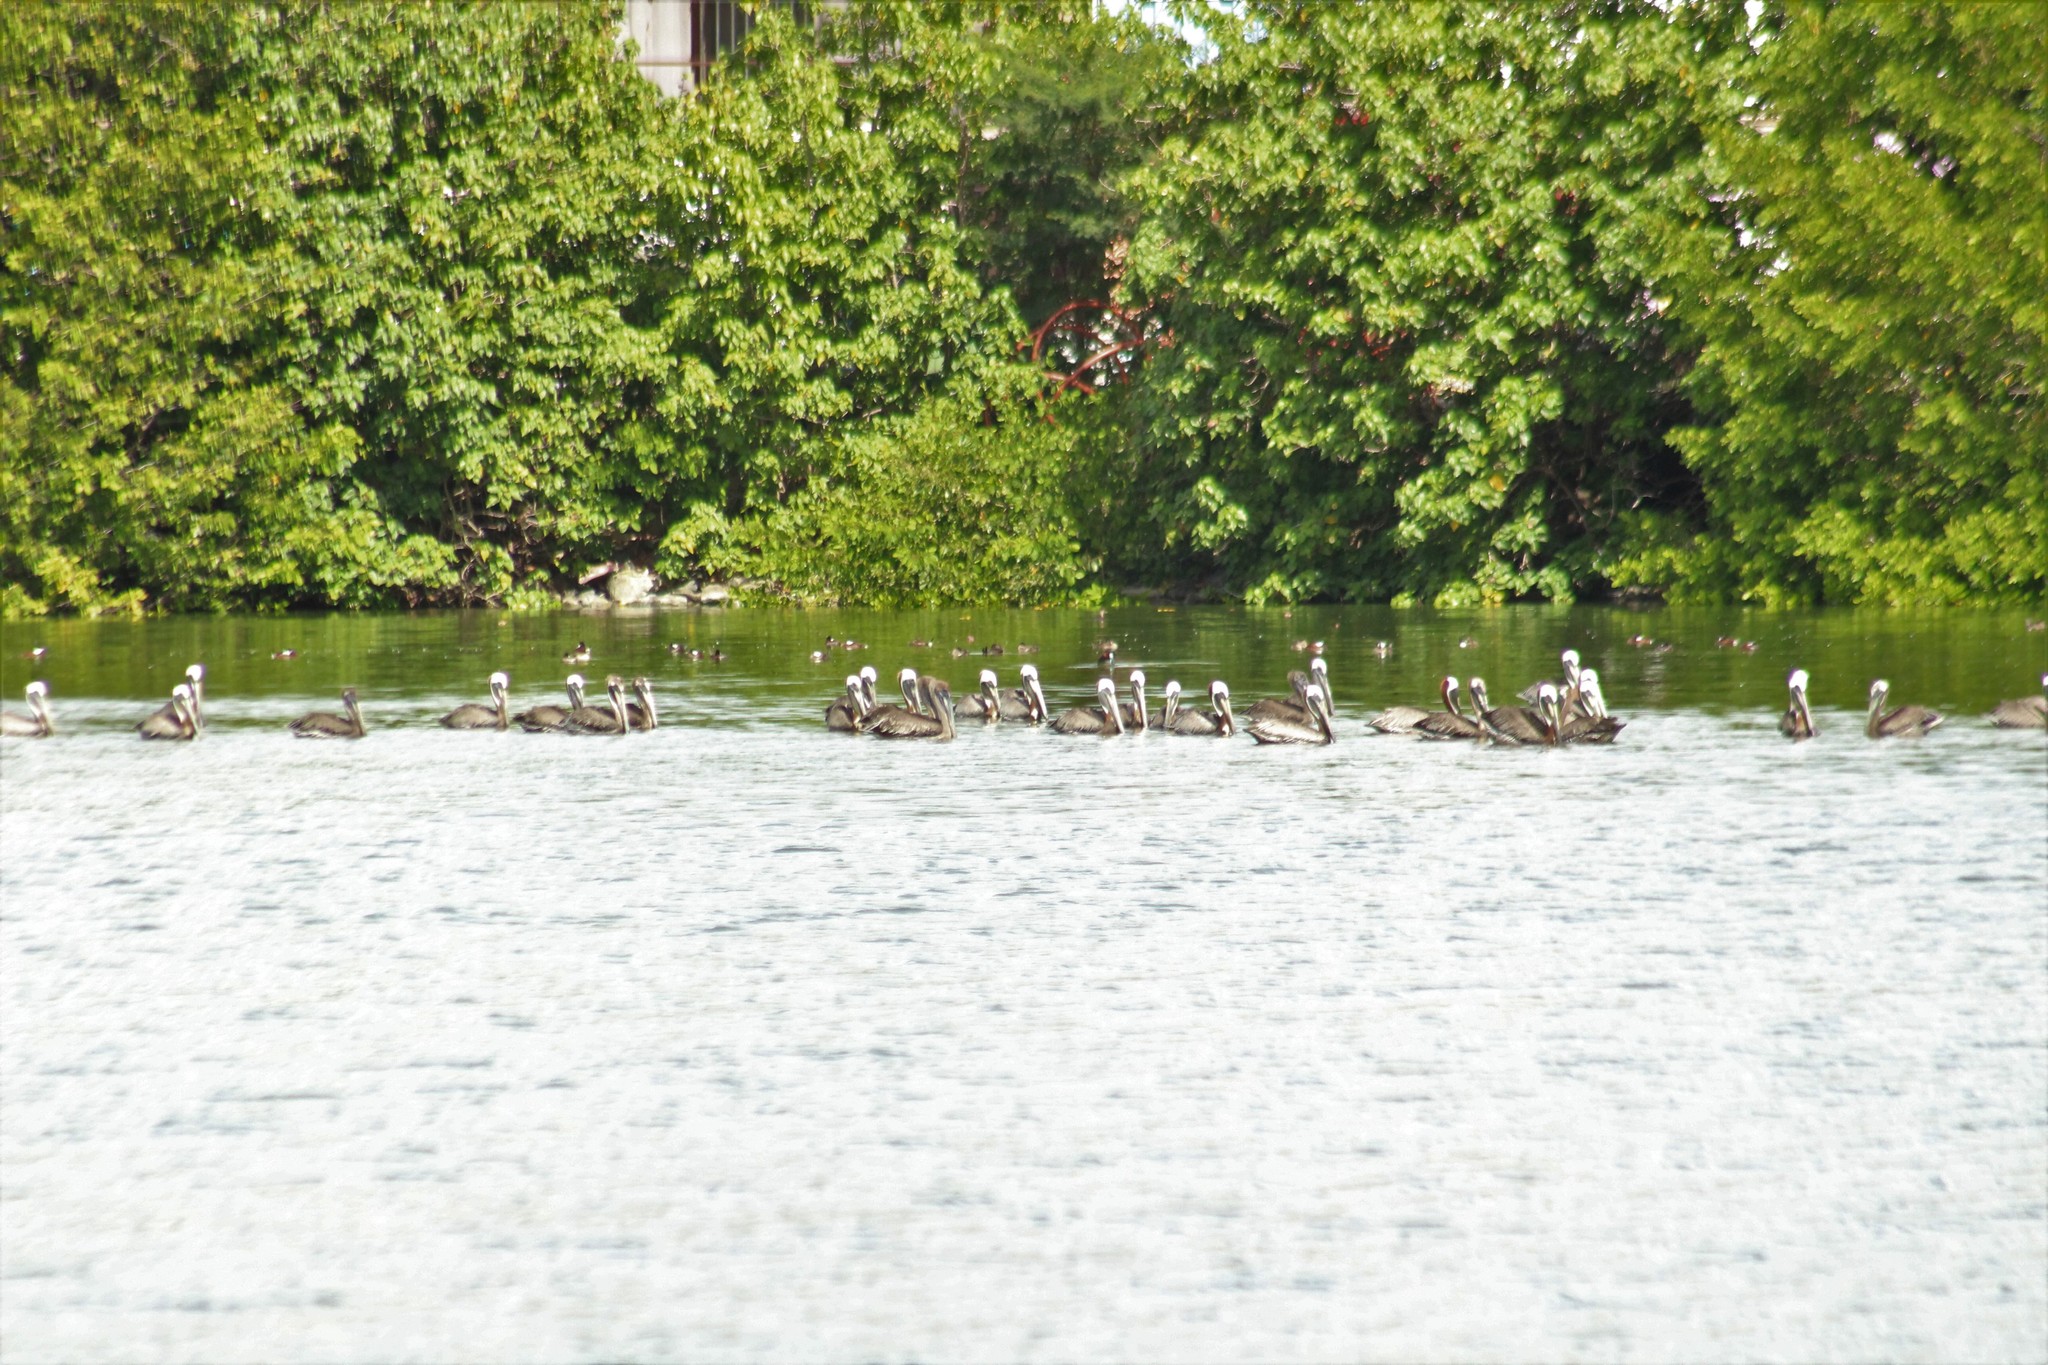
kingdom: Animalia
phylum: Chordata
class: Aves
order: Pelecaniformes
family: Pelecanidae
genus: Pelecanus
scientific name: Pelecanus occidentalis
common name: Brown pelican
